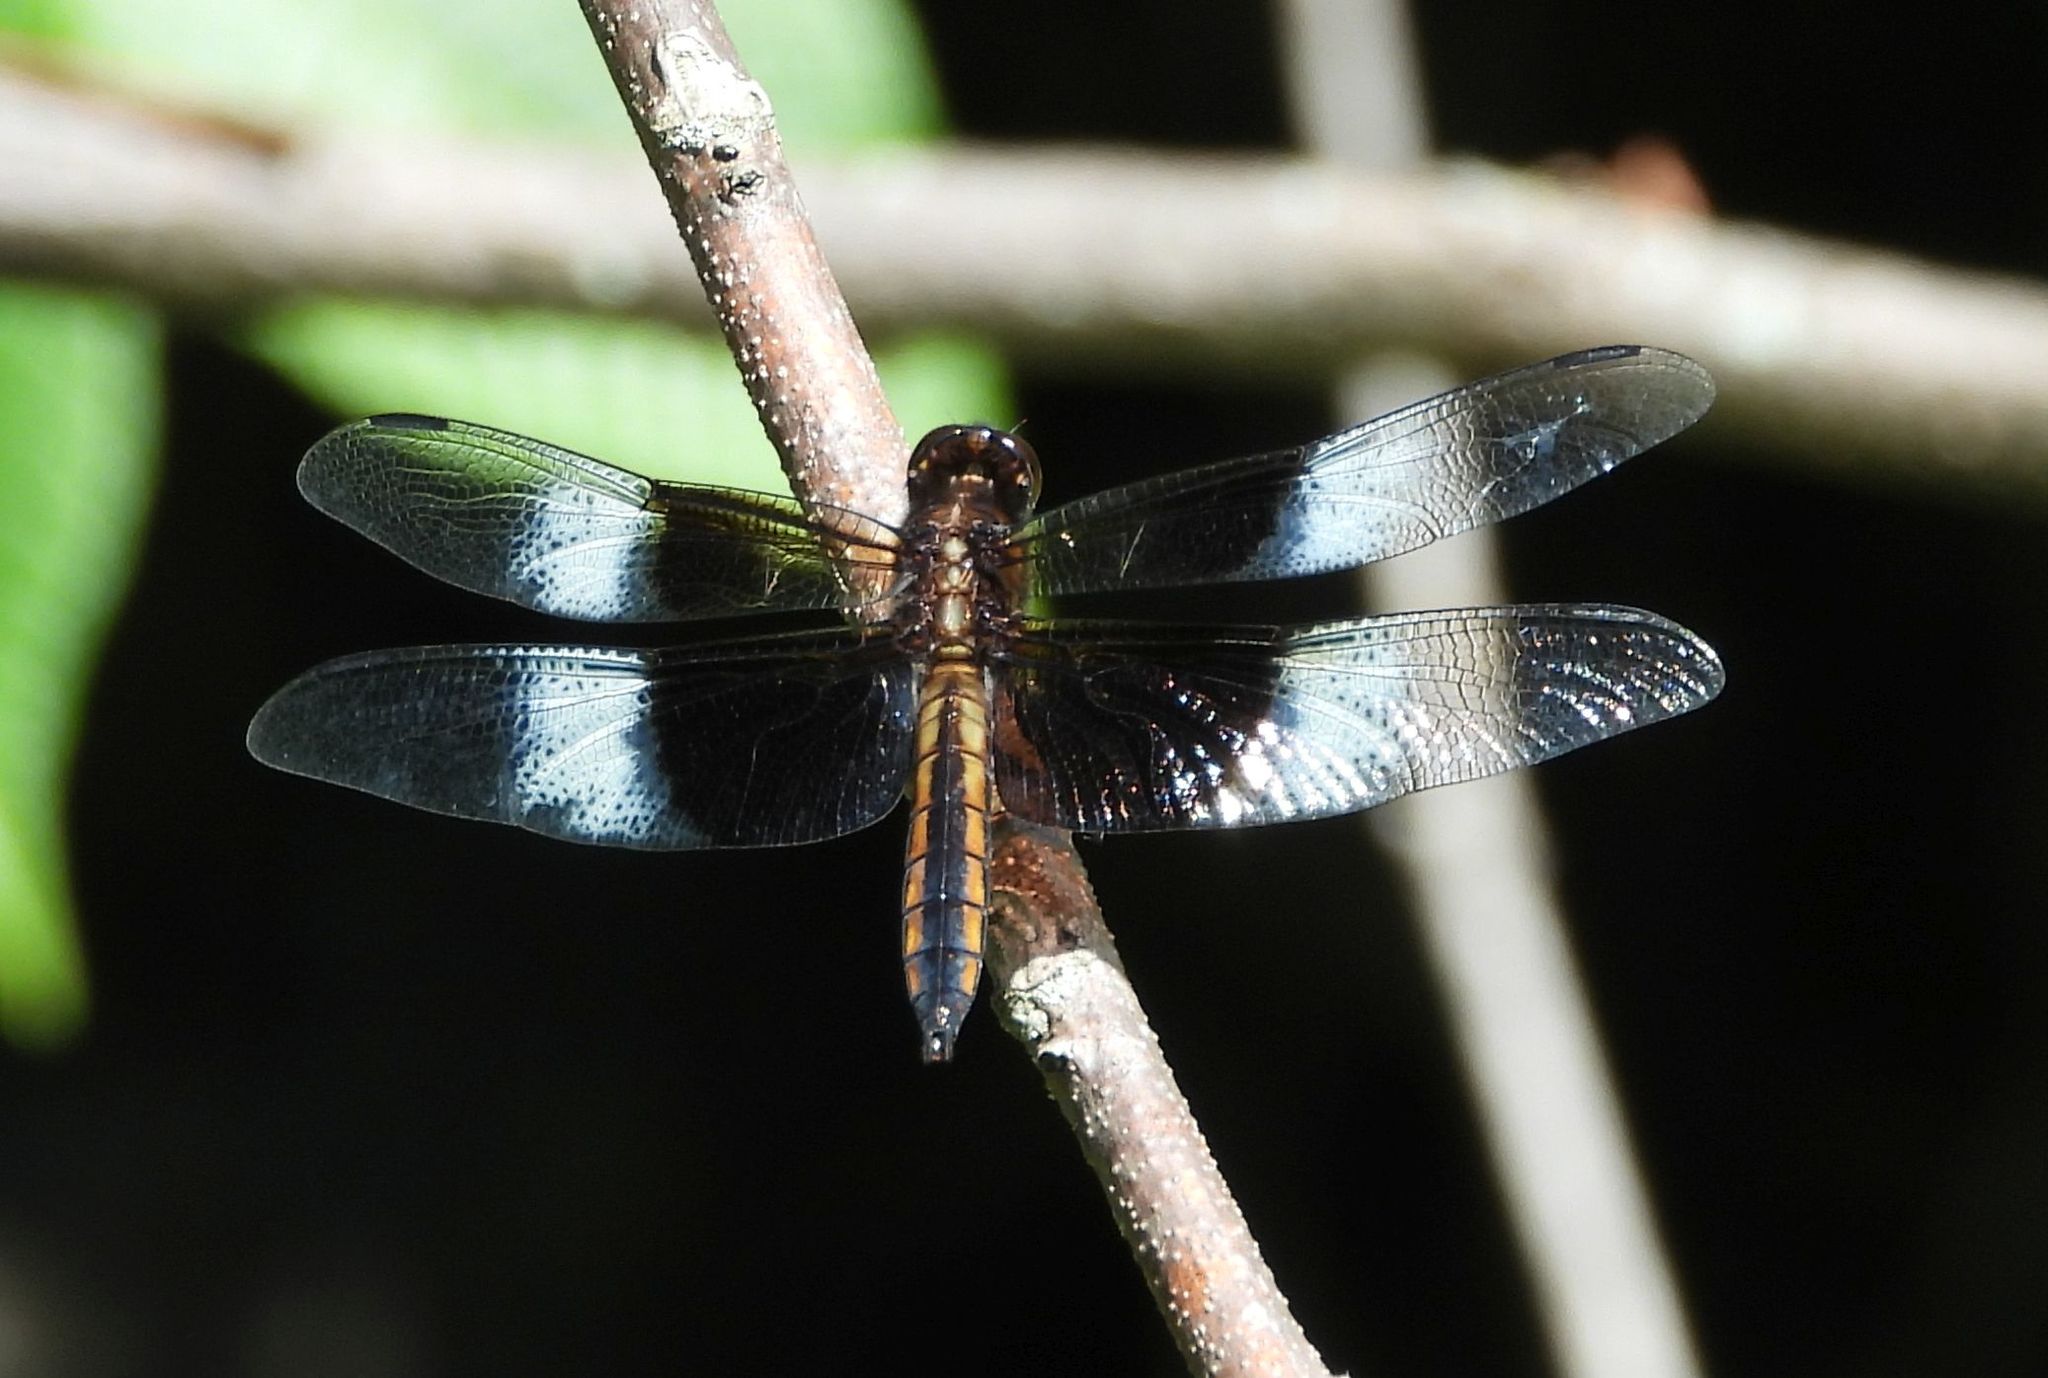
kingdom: Animalia
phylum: Arthropoda
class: Insecta
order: Odonata
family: Libellulidae
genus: Libellula
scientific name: Libellula luctuosa
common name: Widow skimmer
